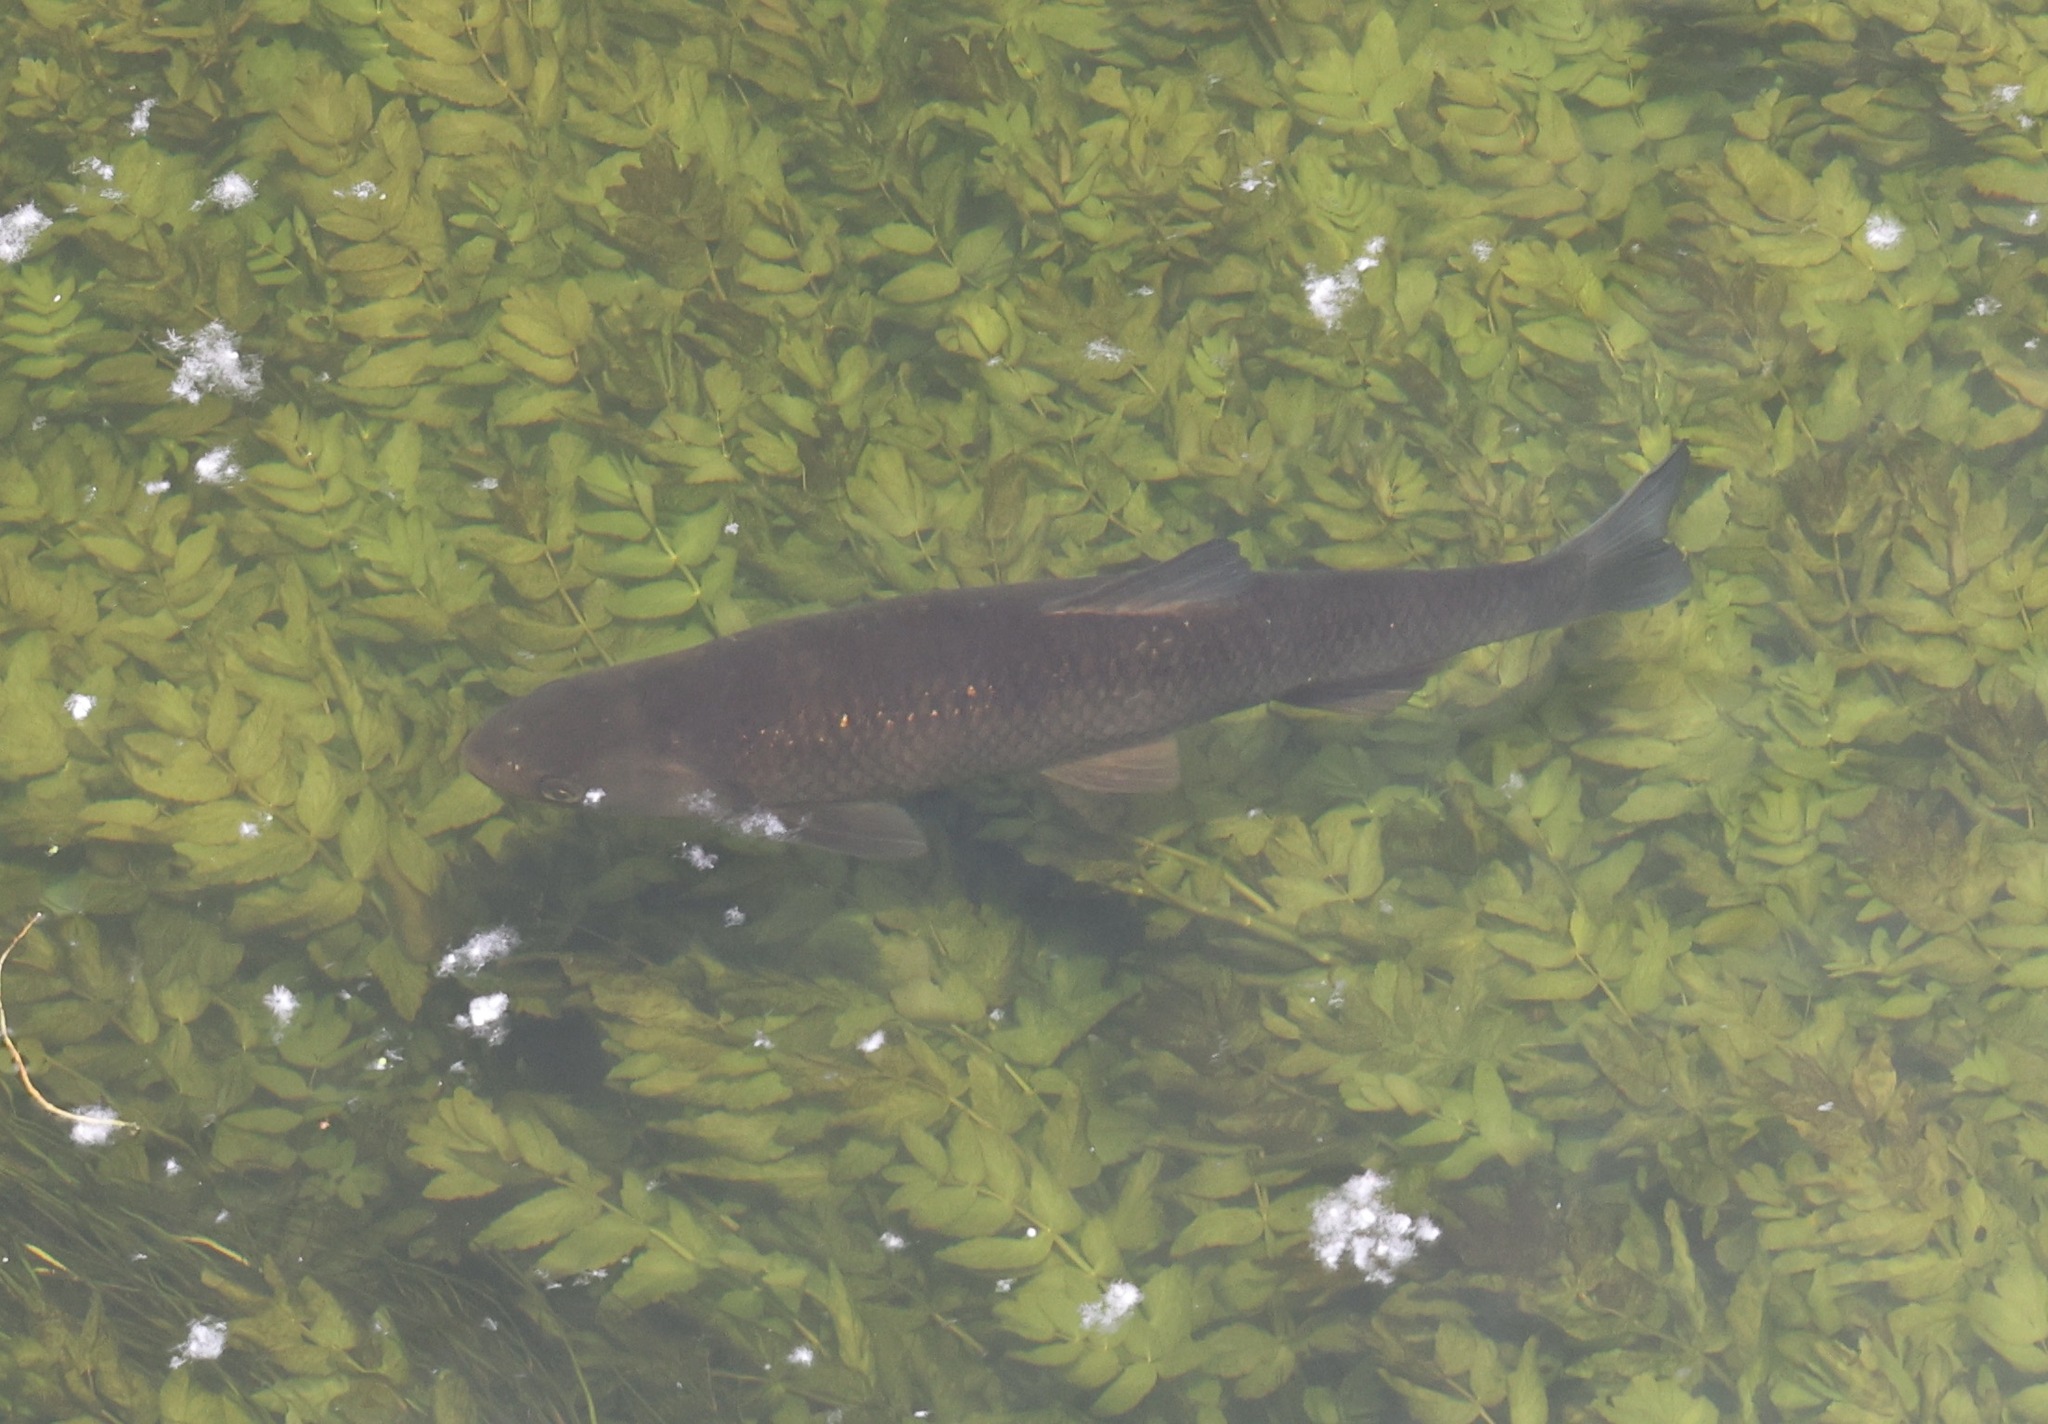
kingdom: Animalia
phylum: Chordata
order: Cypriniformes
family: Cyprinidae
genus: Squalius
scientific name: Squalius cephalus
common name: Chub
